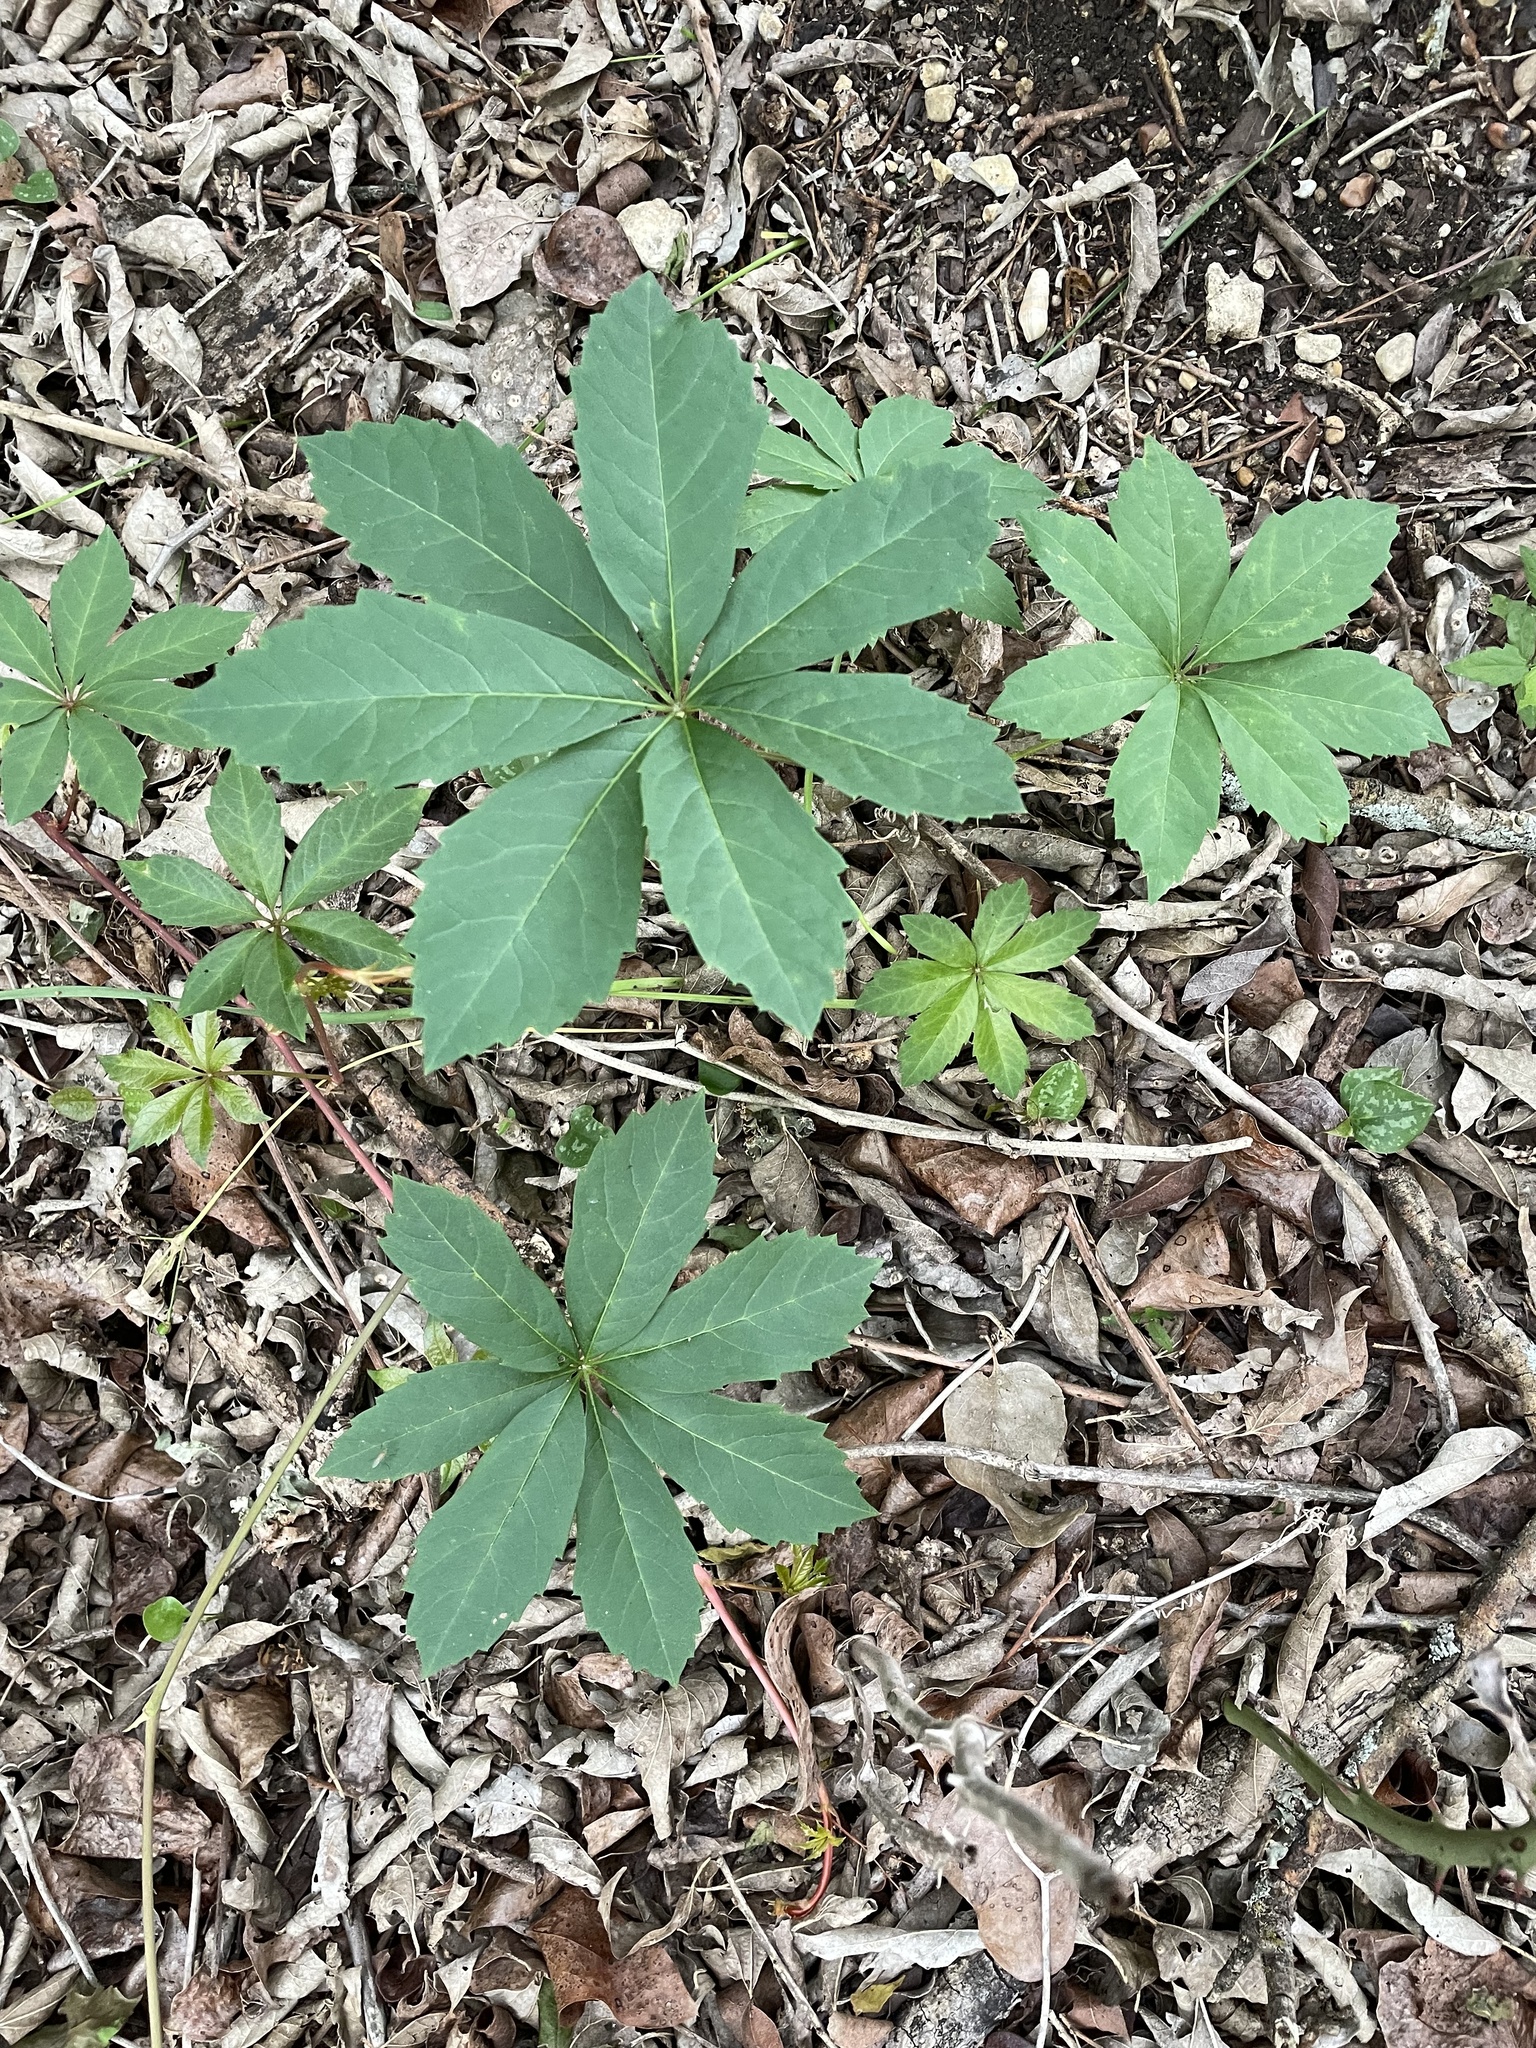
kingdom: Plantae
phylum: Tracheophyta
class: Magnoliopsida
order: Vitales
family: Vitaceae
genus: Parthenocissus
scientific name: Parthenocissus heptaphylla
